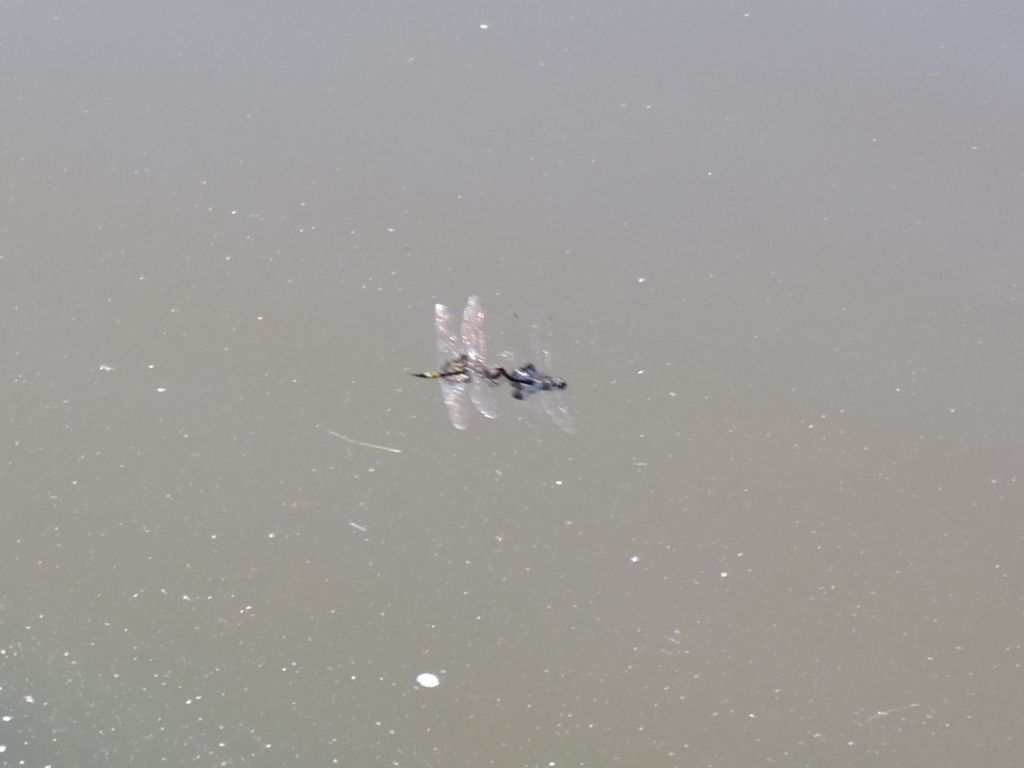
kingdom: Animalia
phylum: Arthropoda
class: Insecta
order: Odonata
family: Libellulidae
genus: Tramea
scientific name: Tramea lacerata
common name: Black saddlebags
